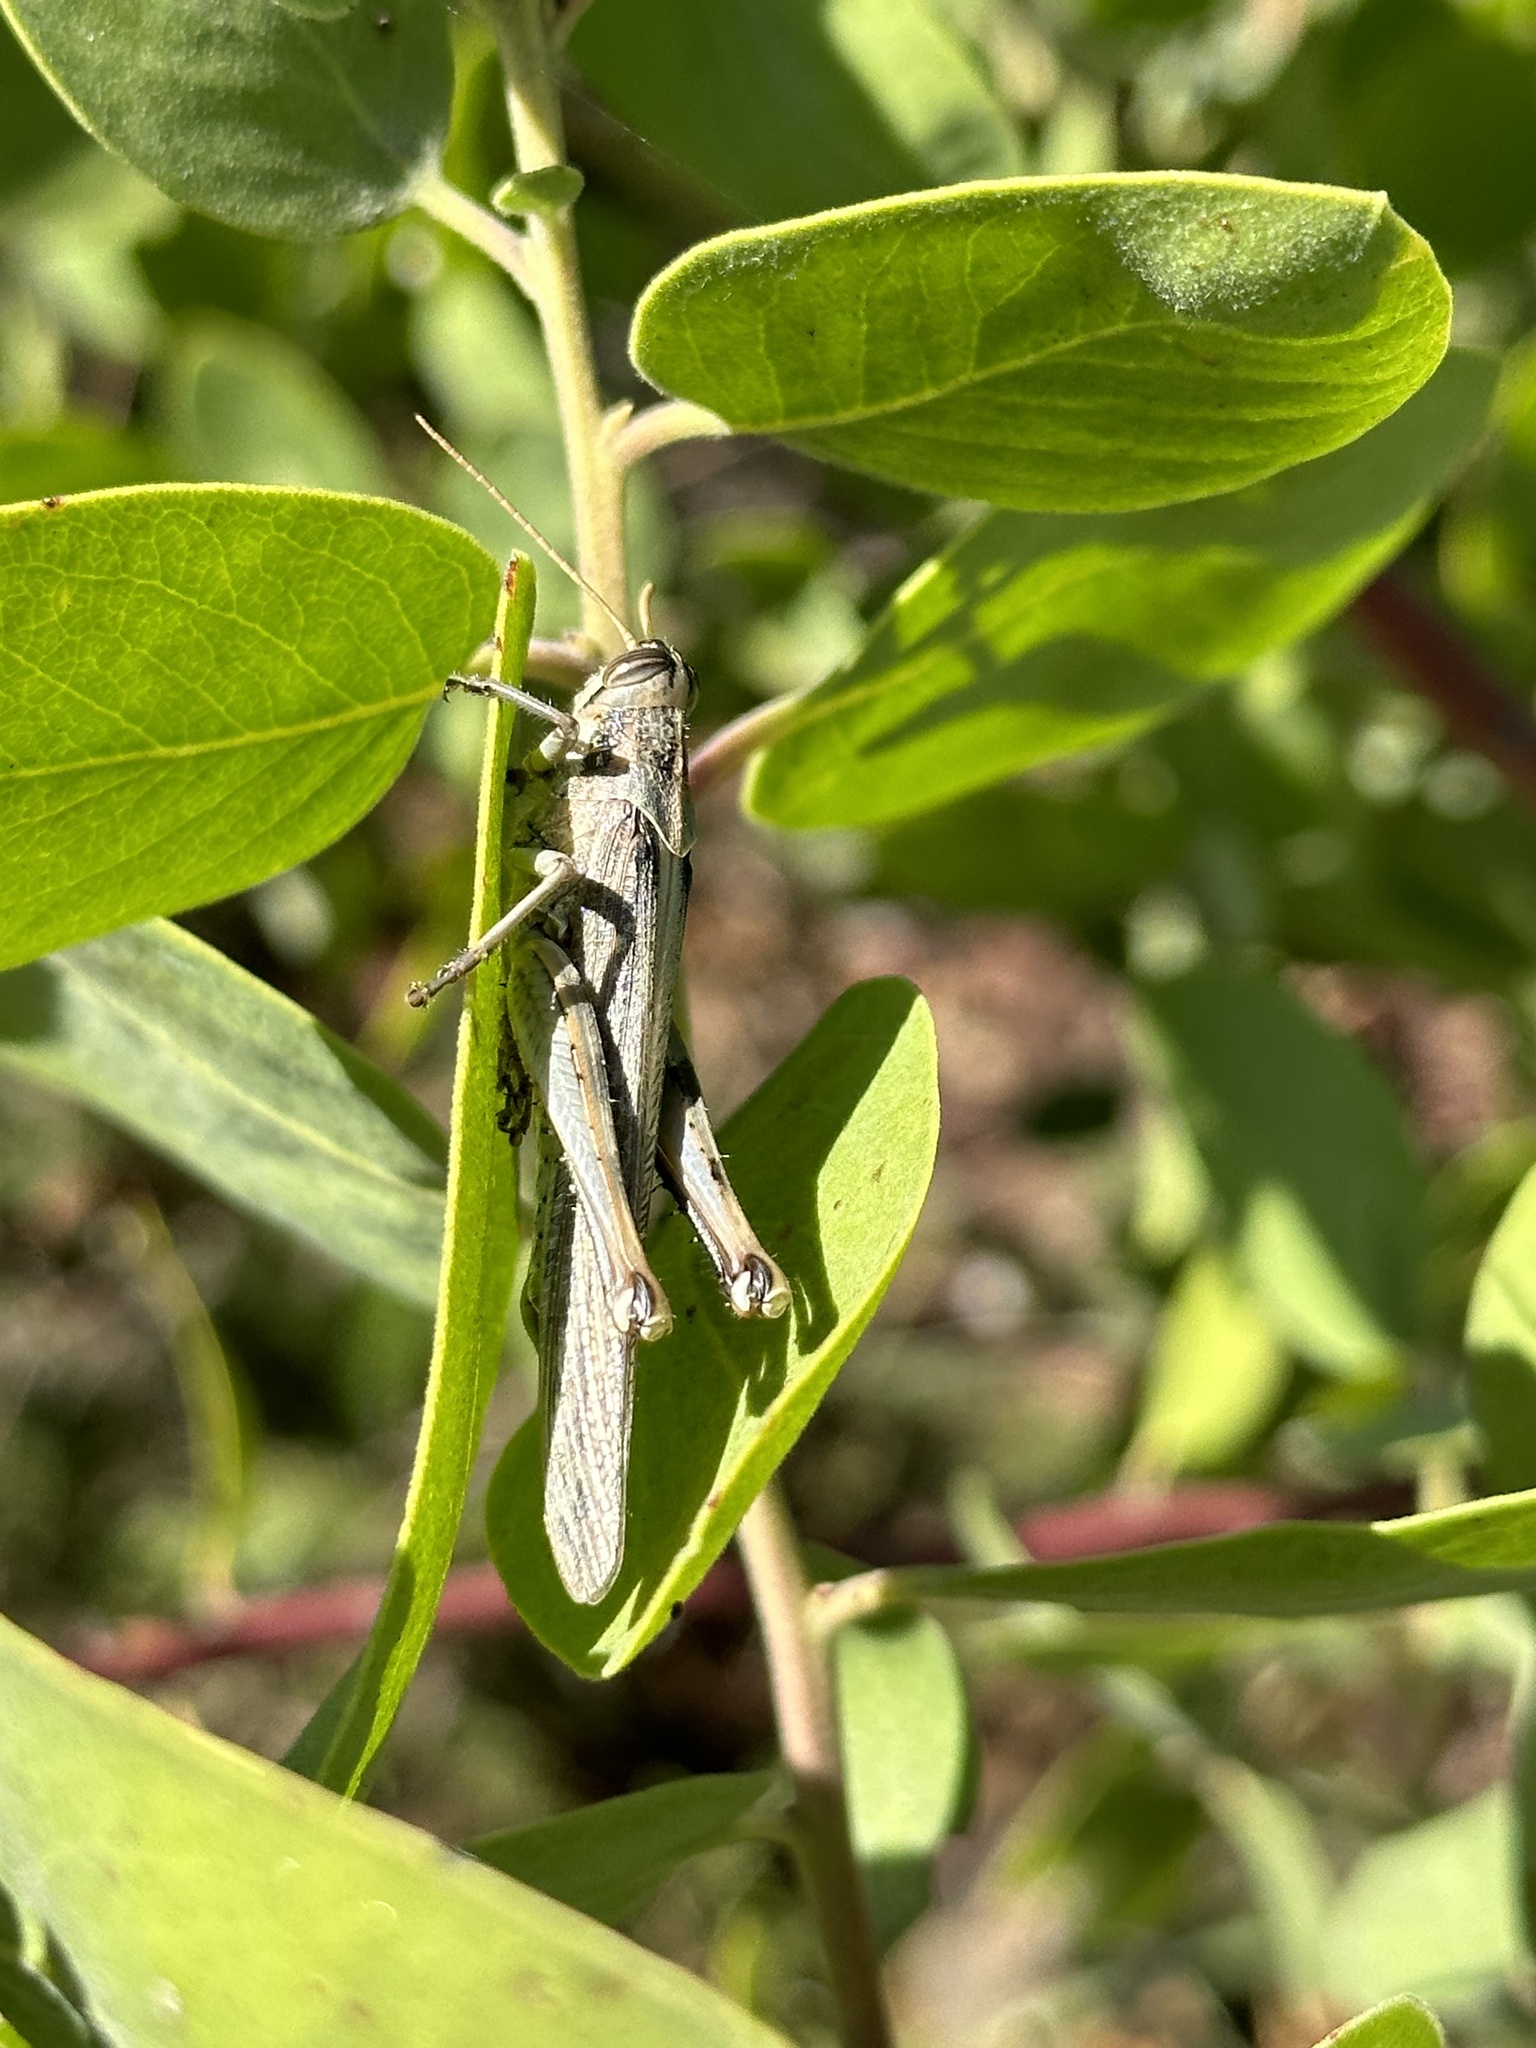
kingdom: Animalia
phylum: Arthropoda
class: Insecta
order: Orthoptera
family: Acrididae
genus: Schistocerca
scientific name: Schistocerca nitens
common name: Vagrant grasshopper
